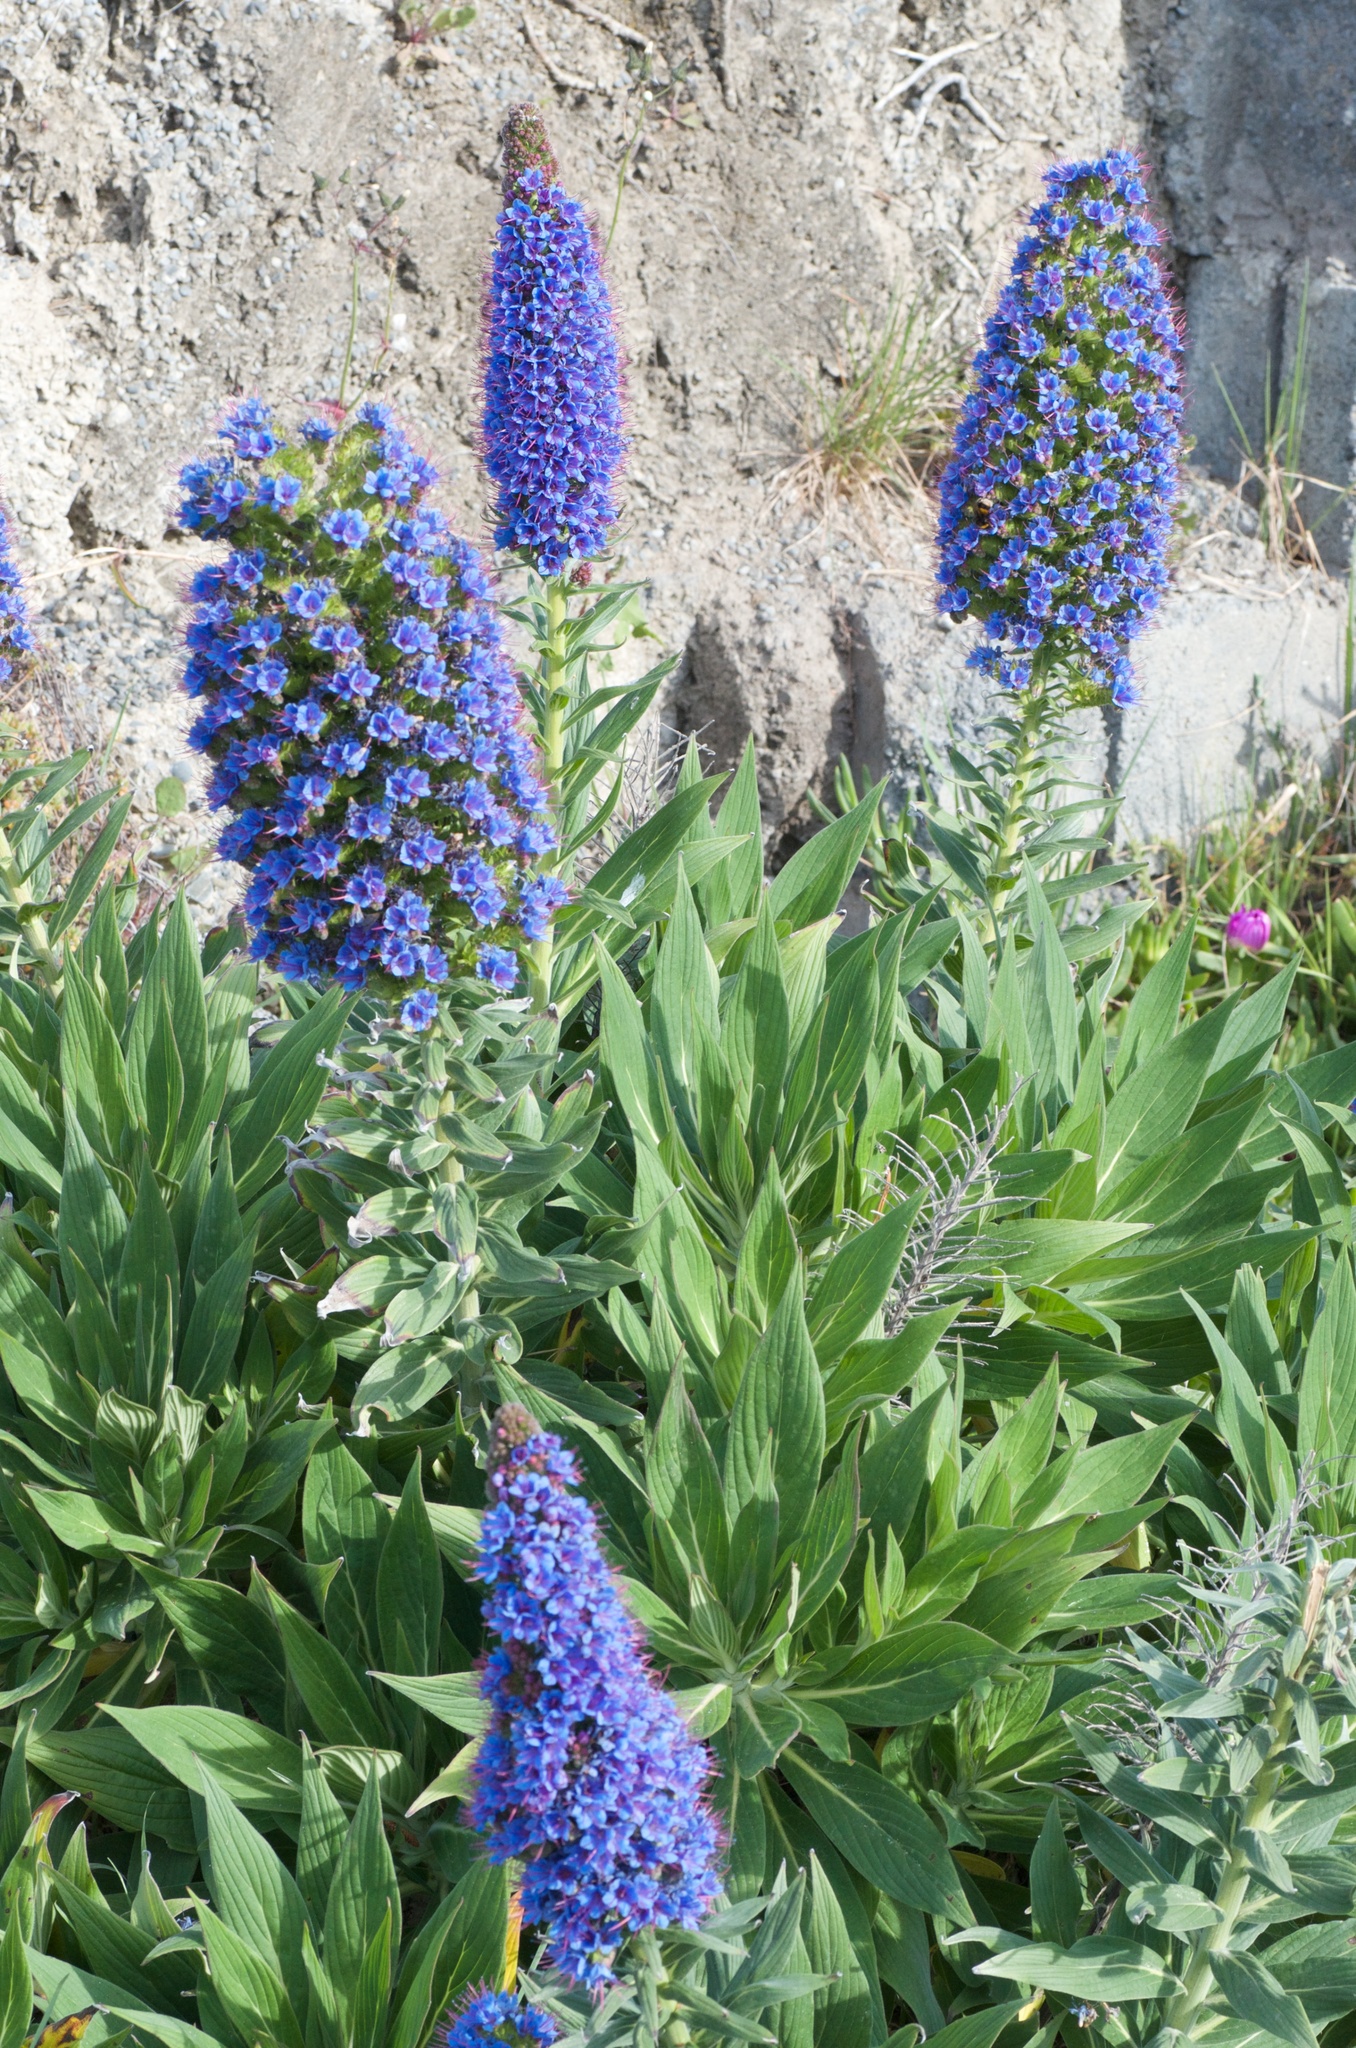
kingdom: Plantae
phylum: Tracheophyta
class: Magnoliopsida
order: Boraginales
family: Boraginaceae
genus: Echium
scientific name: Echium candicans
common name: Pride of madeira
